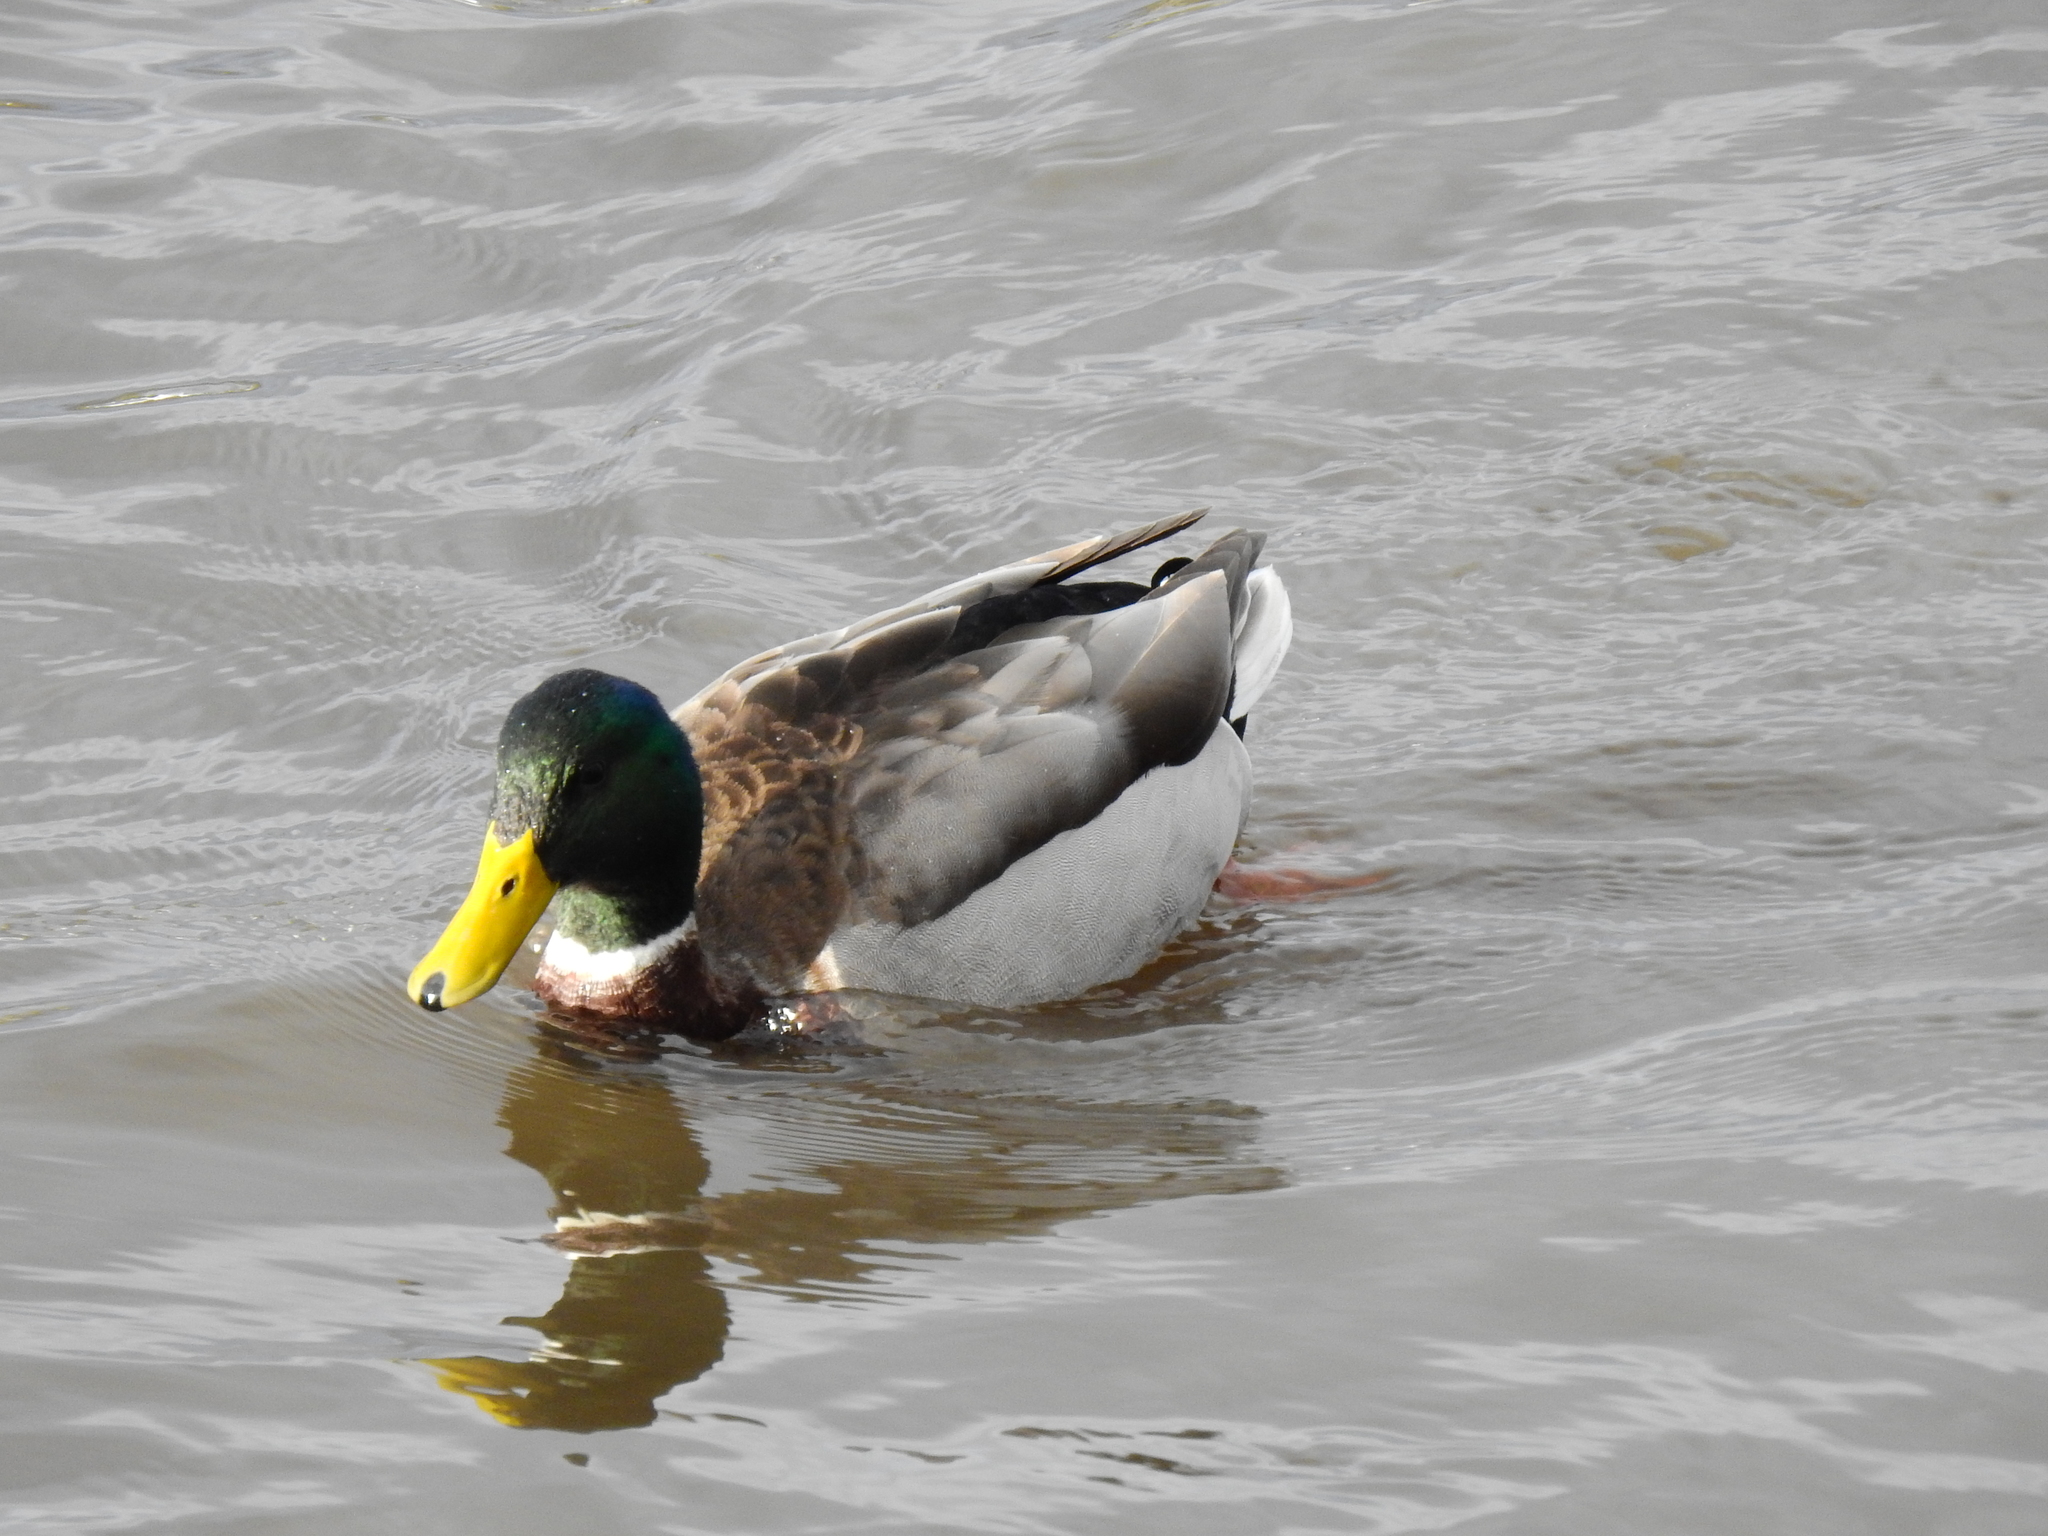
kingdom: Animalia
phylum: Chordata
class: Aves
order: Anseriformes
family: Anatidae
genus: Anas
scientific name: Anas platyrhynchos
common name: Mallard
